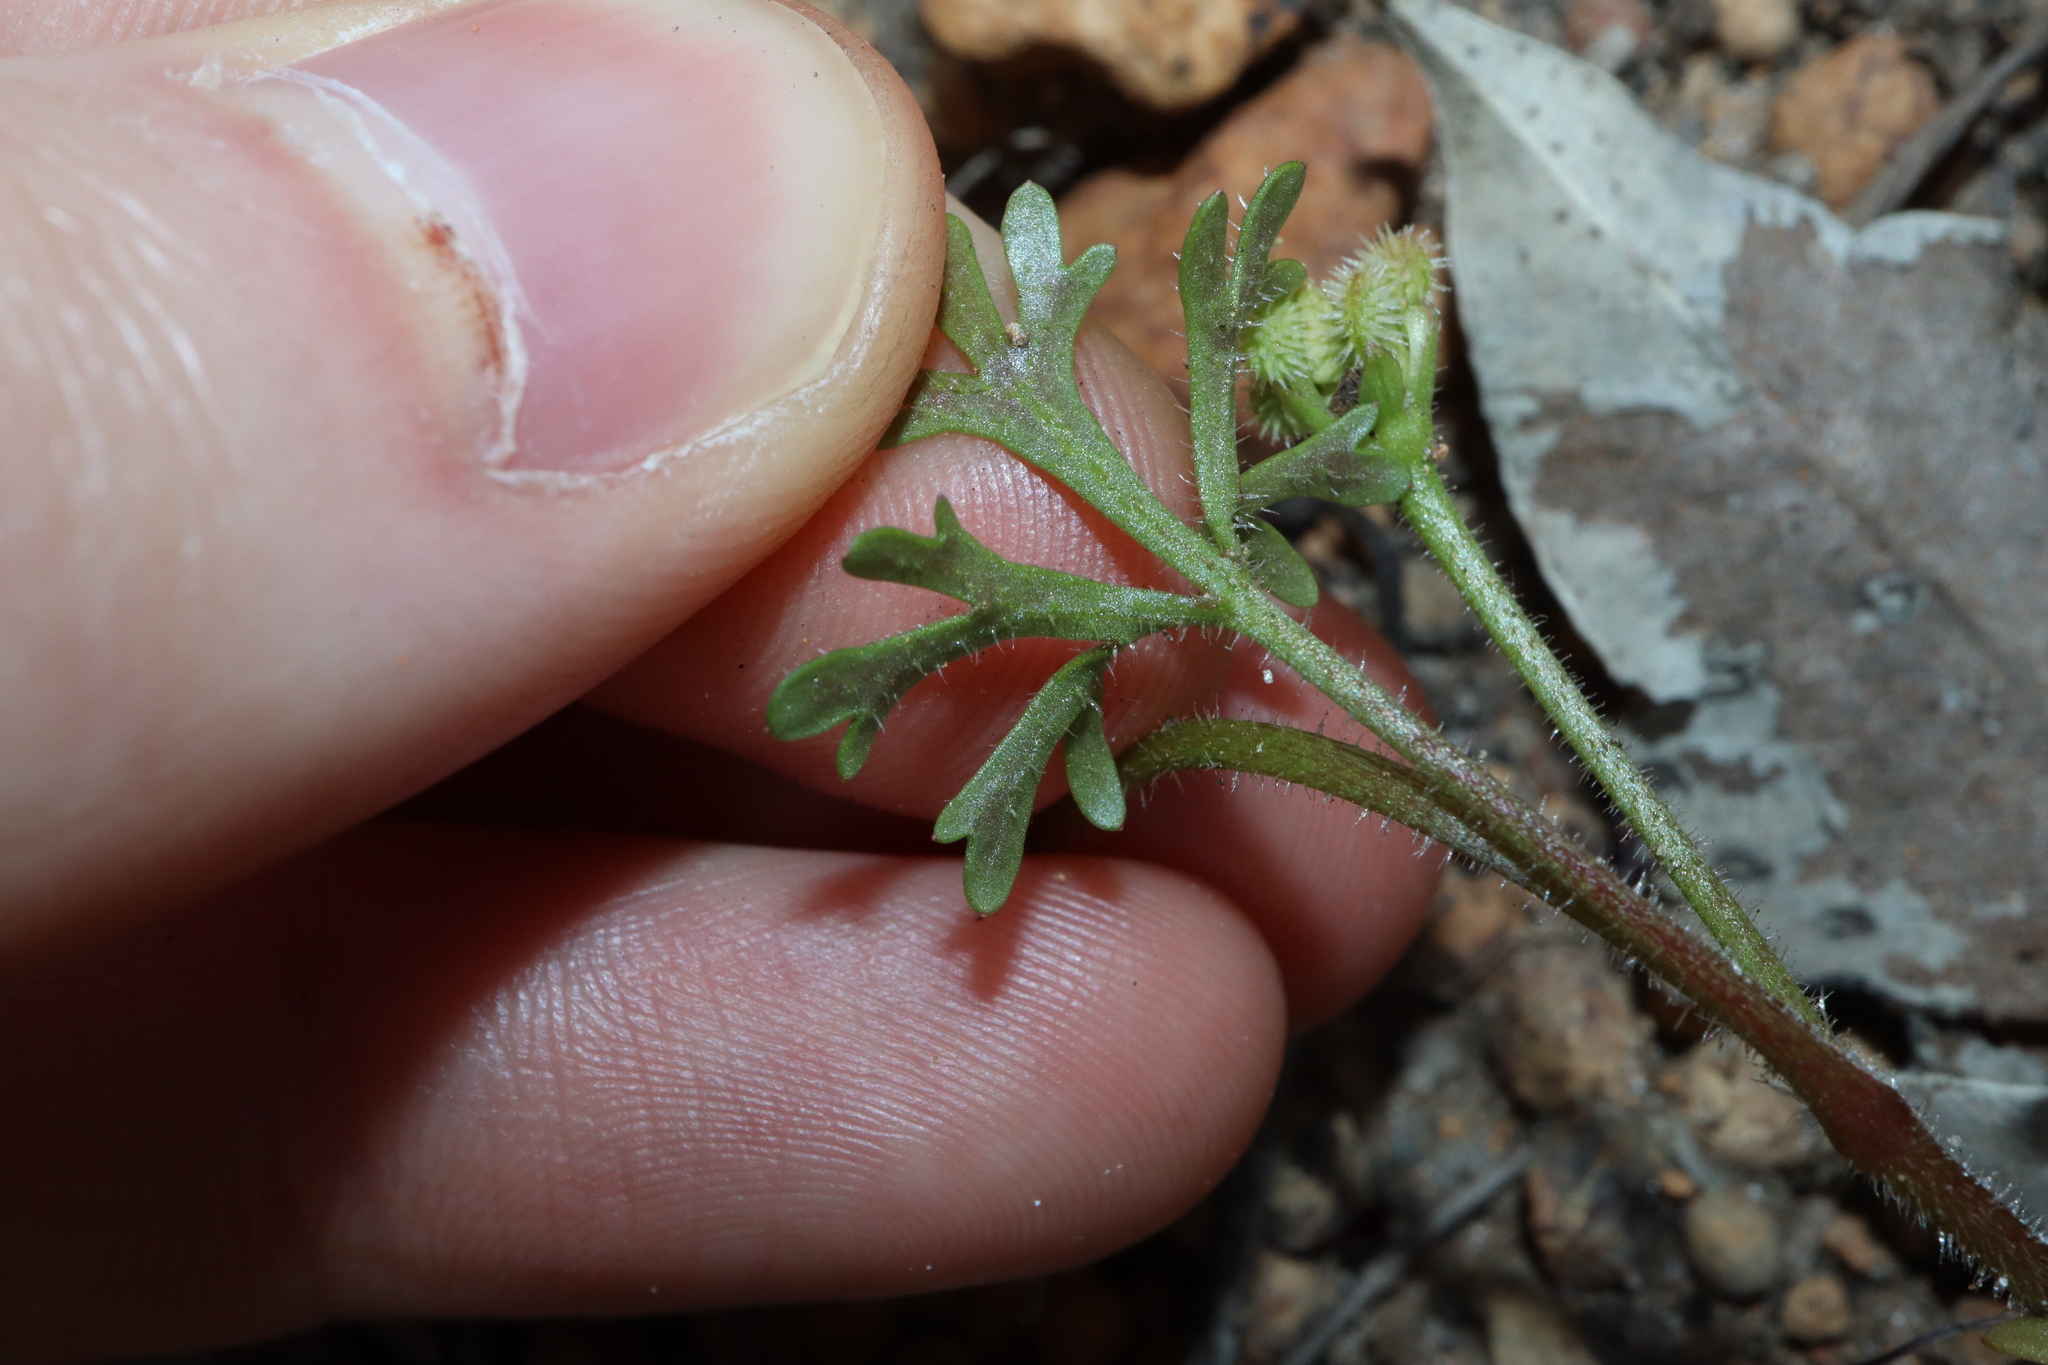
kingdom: Plantae
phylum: Tracheophyta
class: Magnoliopsida
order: Apiales
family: Araliaceae
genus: Trachymene
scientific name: Trachymene pilosa
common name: Dwarf trachymene
